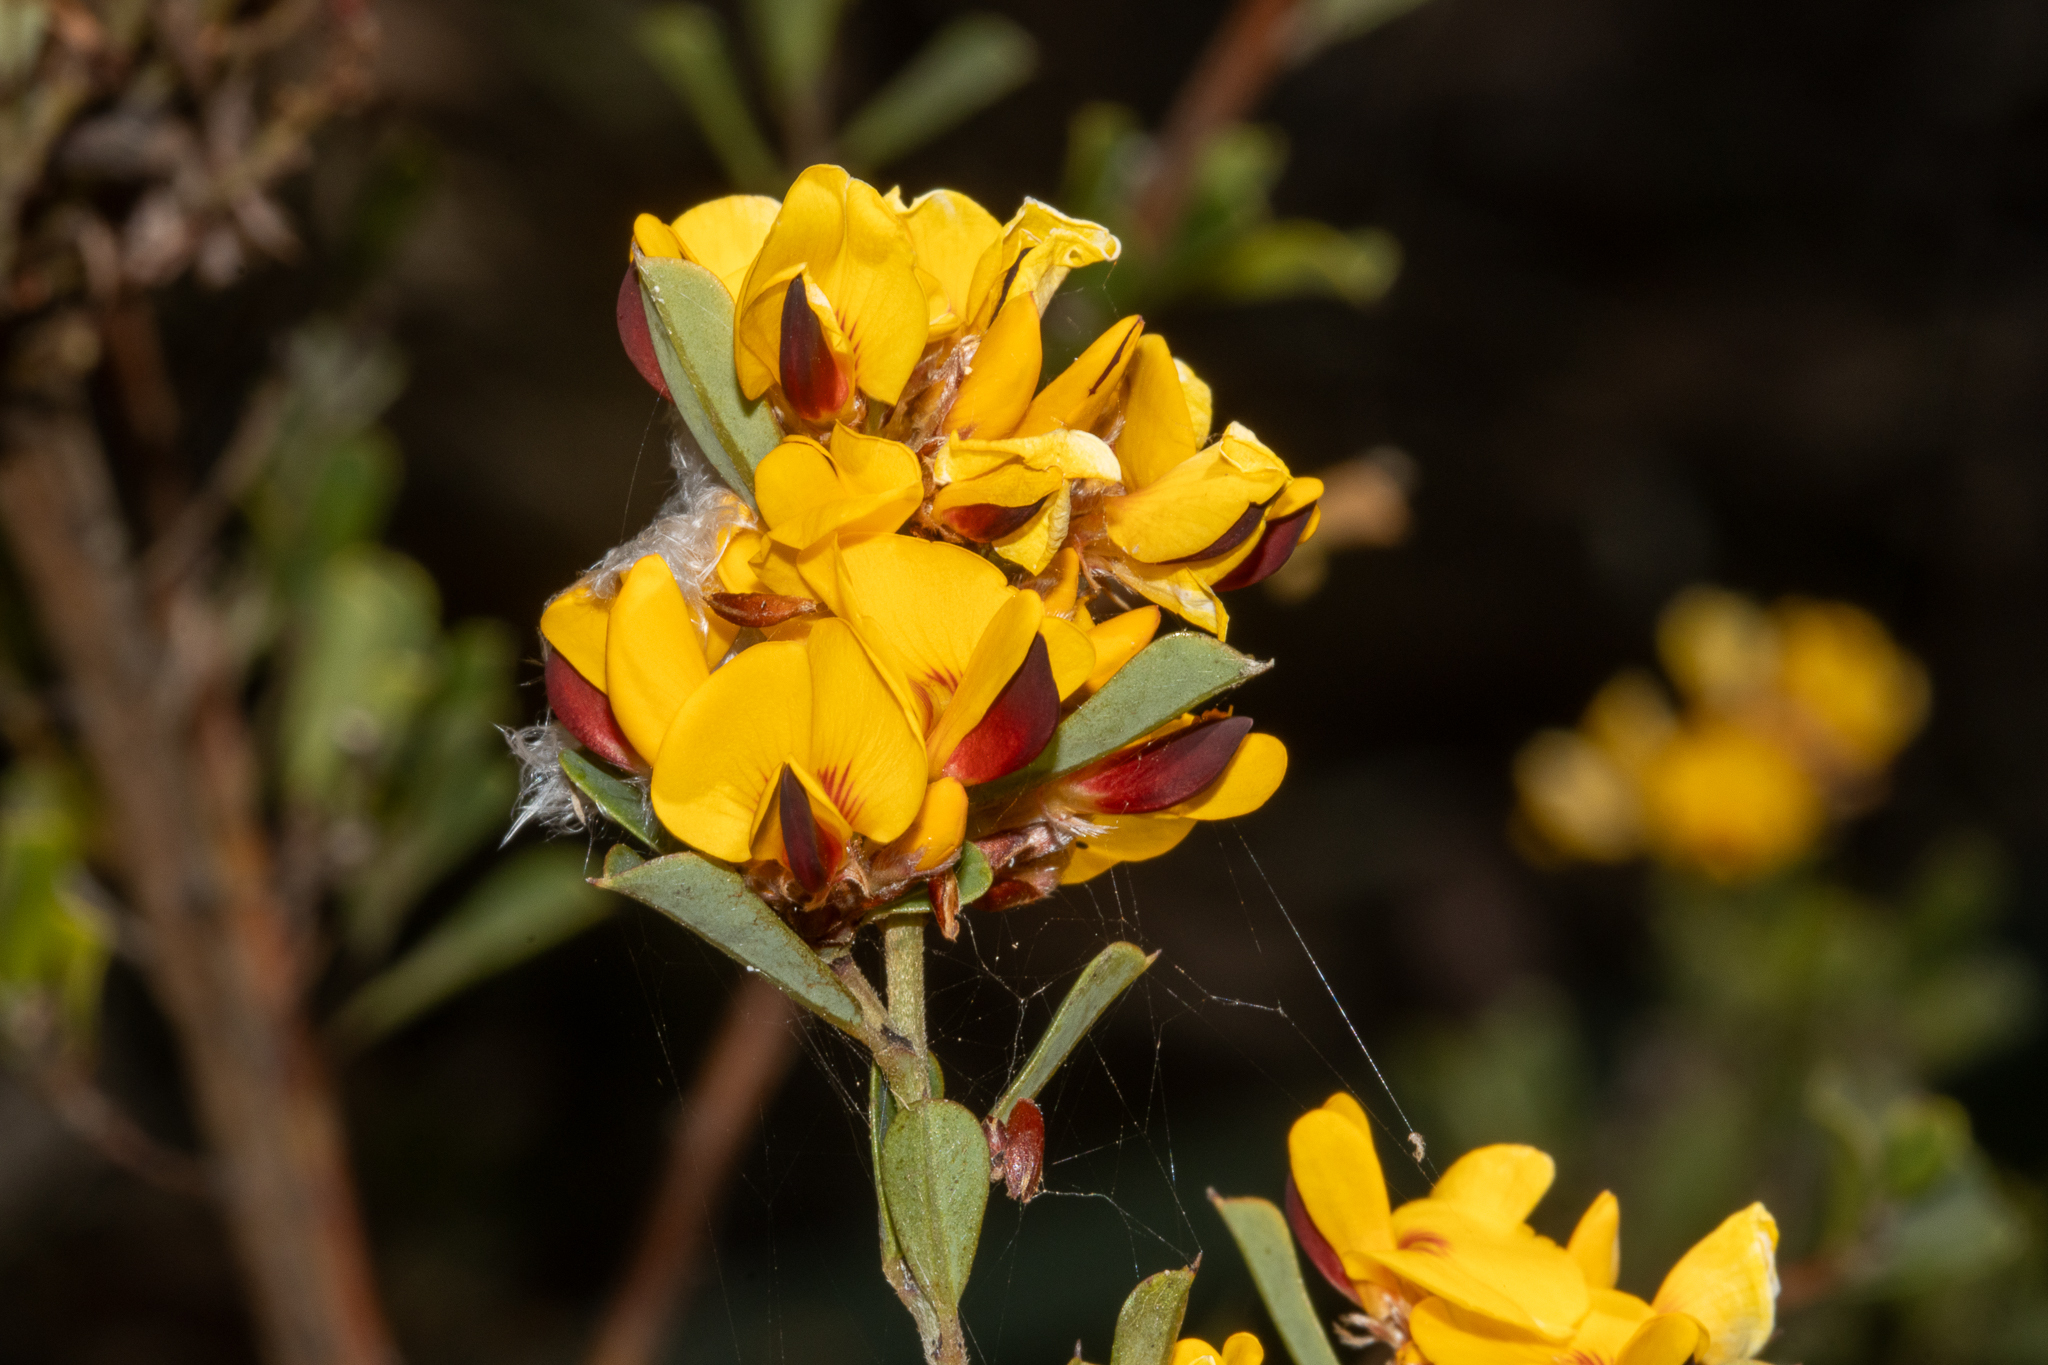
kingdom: Plantae
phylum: Tracheophyta
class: Magnoliopsida
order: Fabales
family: Fabaceae
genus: Pultenaea
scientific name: Pultenaea daphnoides
